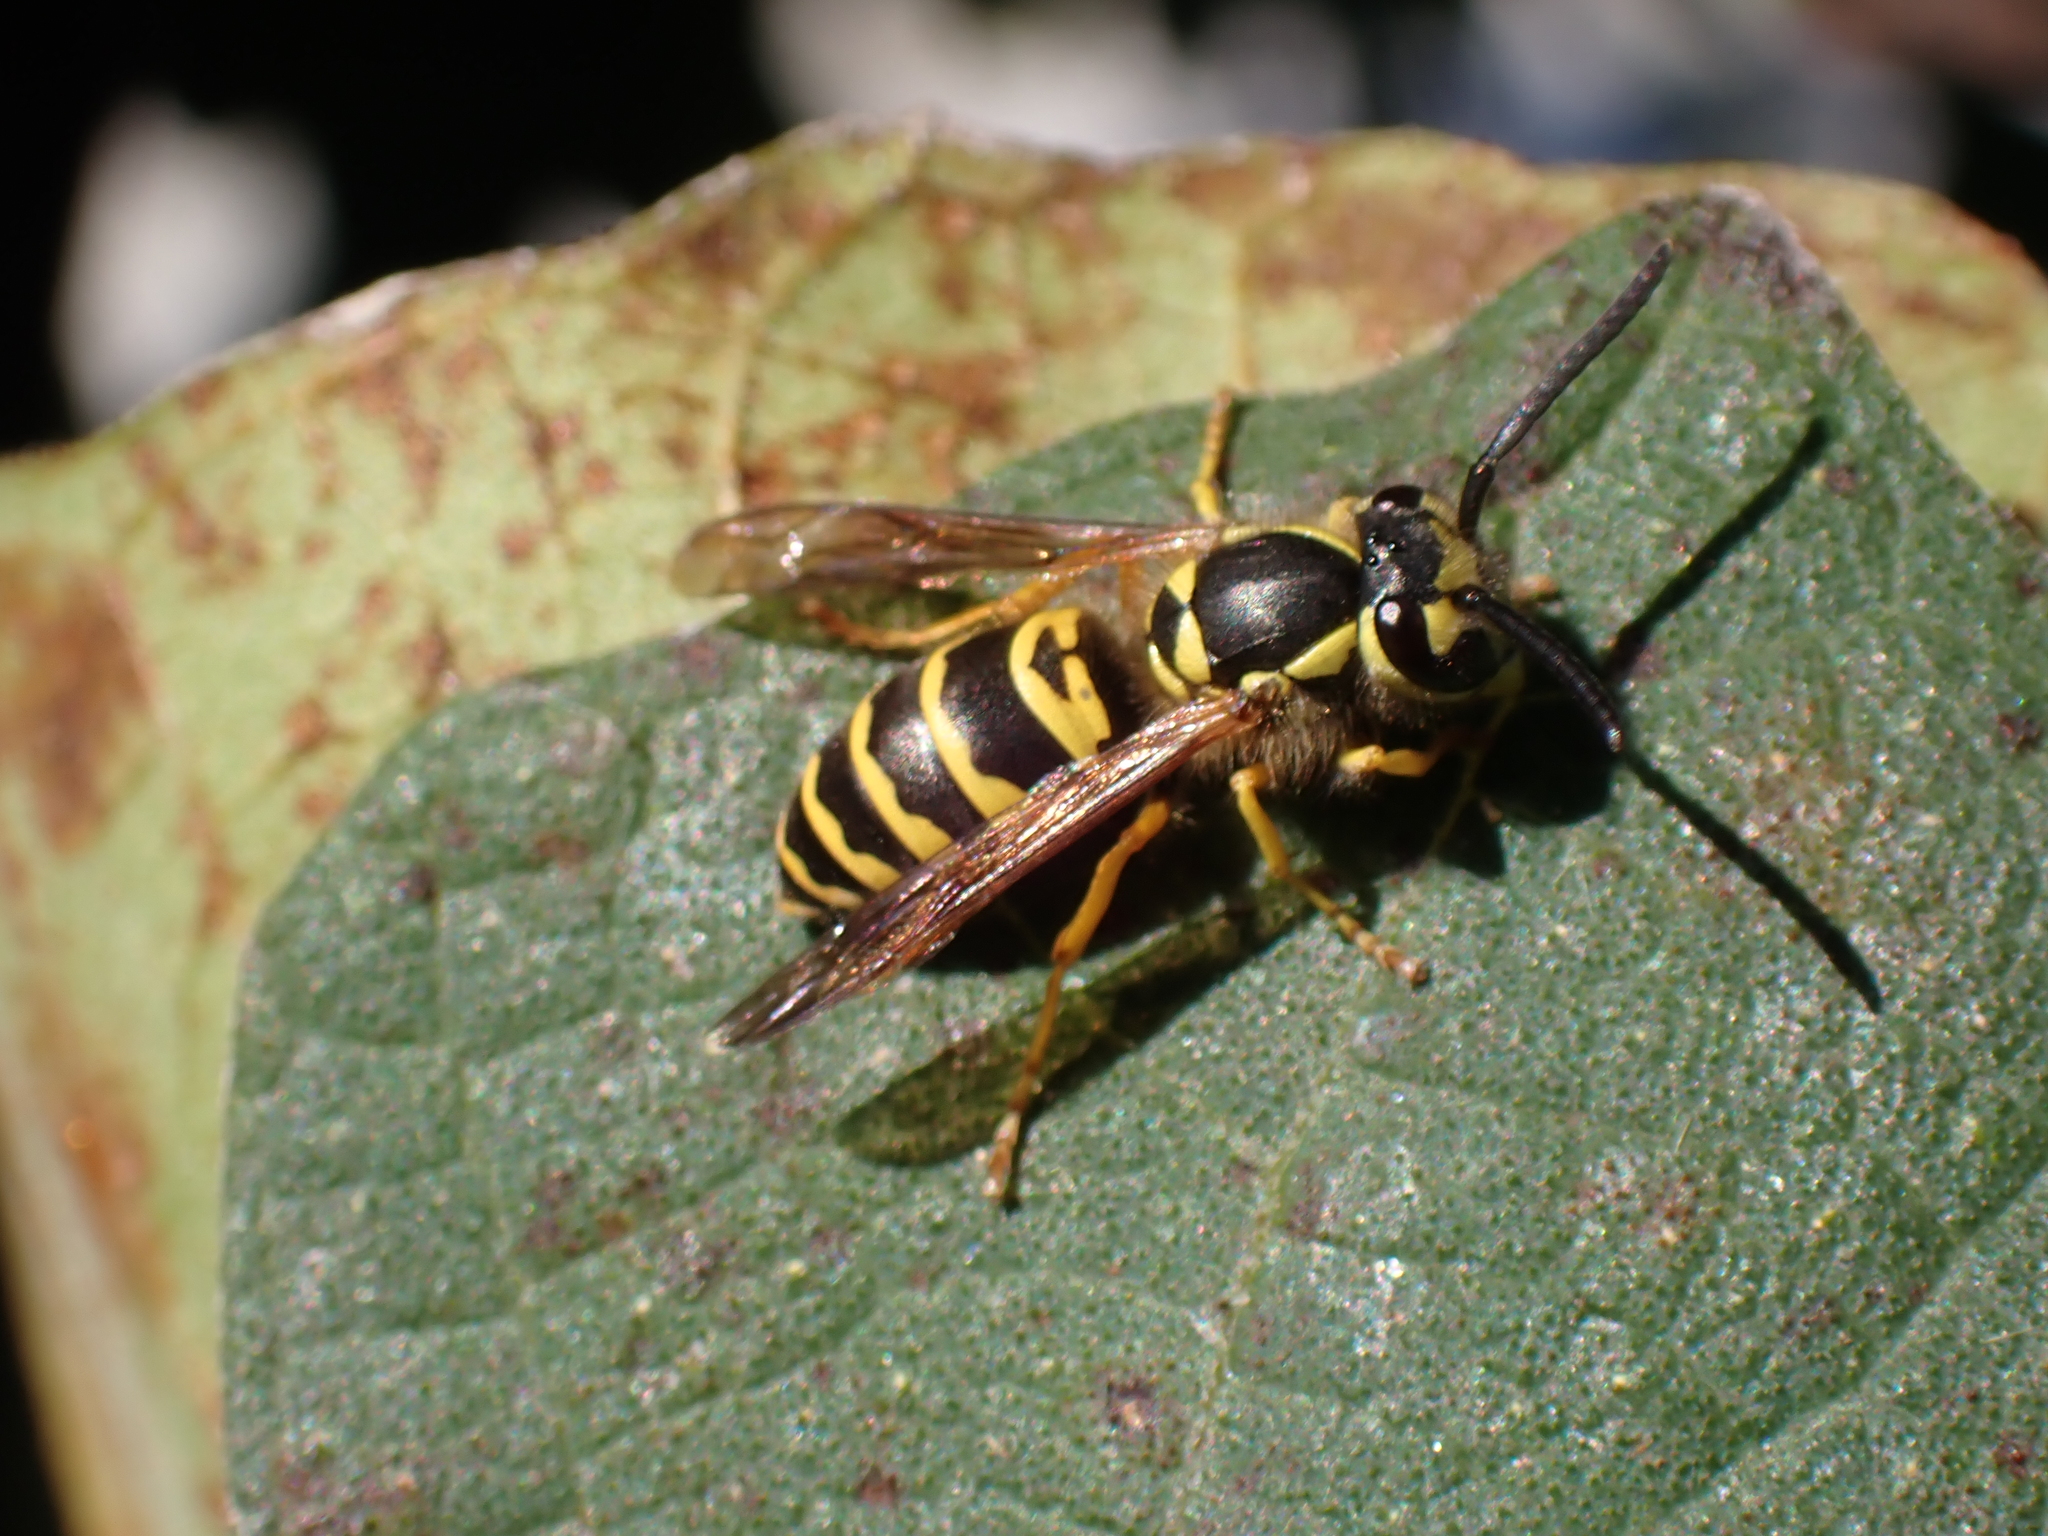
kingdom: Animalia
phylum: Arthropoda
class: Insecta
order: Hymenoptera
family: Vespidae
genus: Vespula
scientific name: Vespula maculifrons
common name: Eastern yellowjacket
